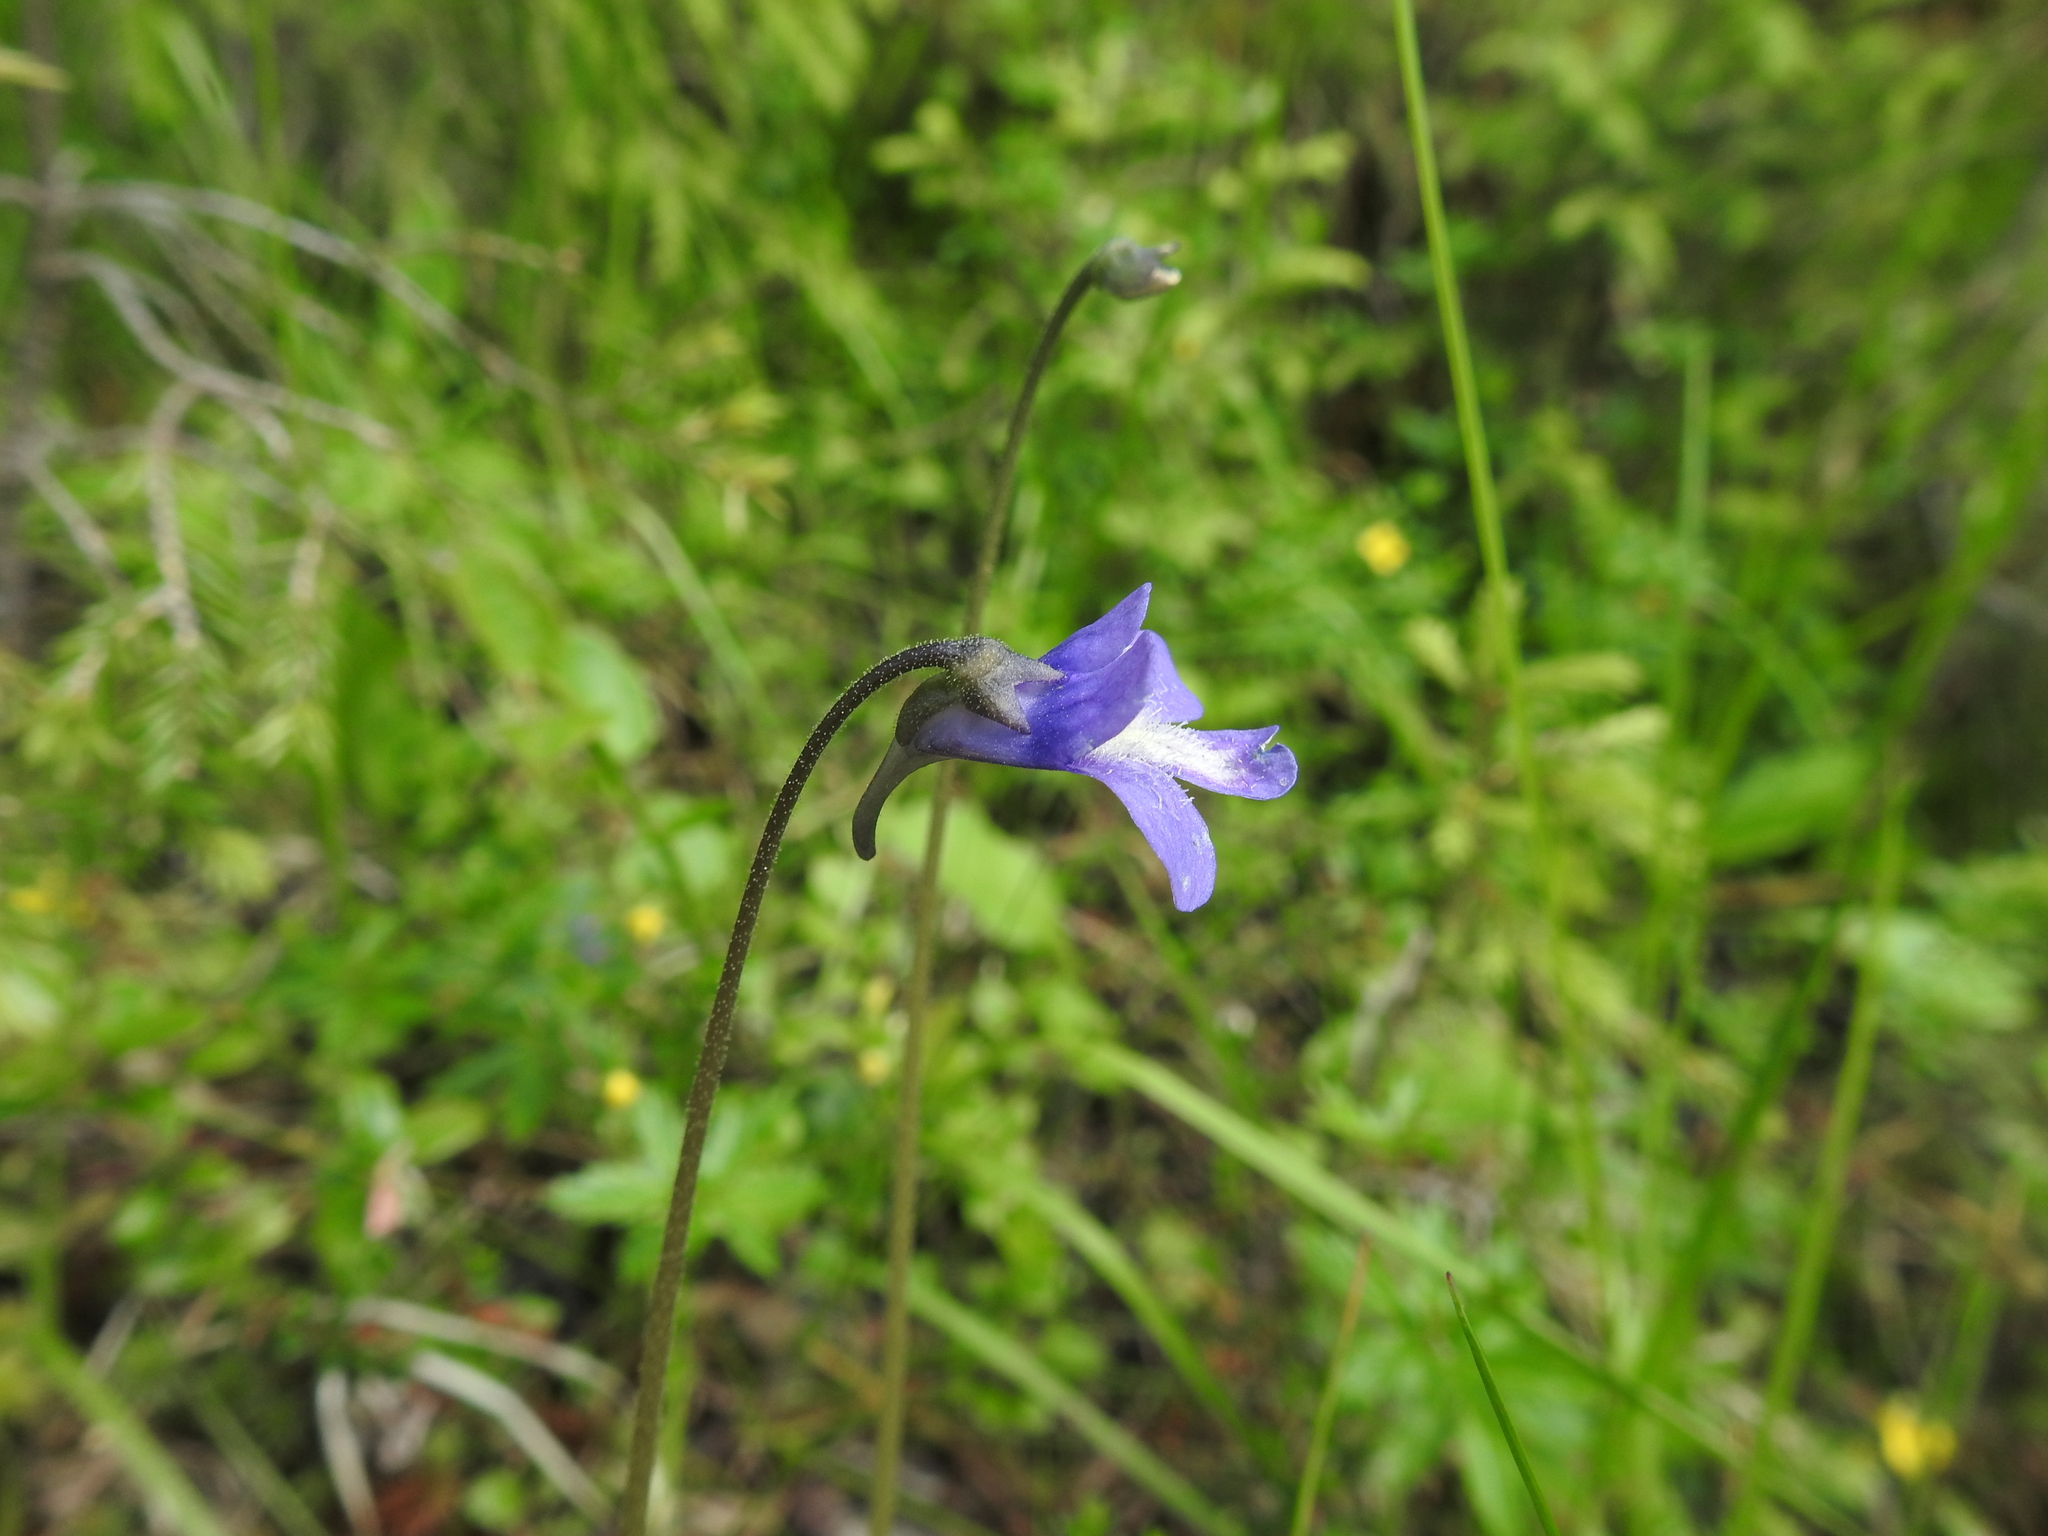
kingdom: Plantae
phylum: Tracheophyta
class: Magnoliopsida
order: Lamiales
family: Lentibulariaceae
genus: Pinguicula
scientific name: Pinguicula vulgaris
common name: Common butterwort
